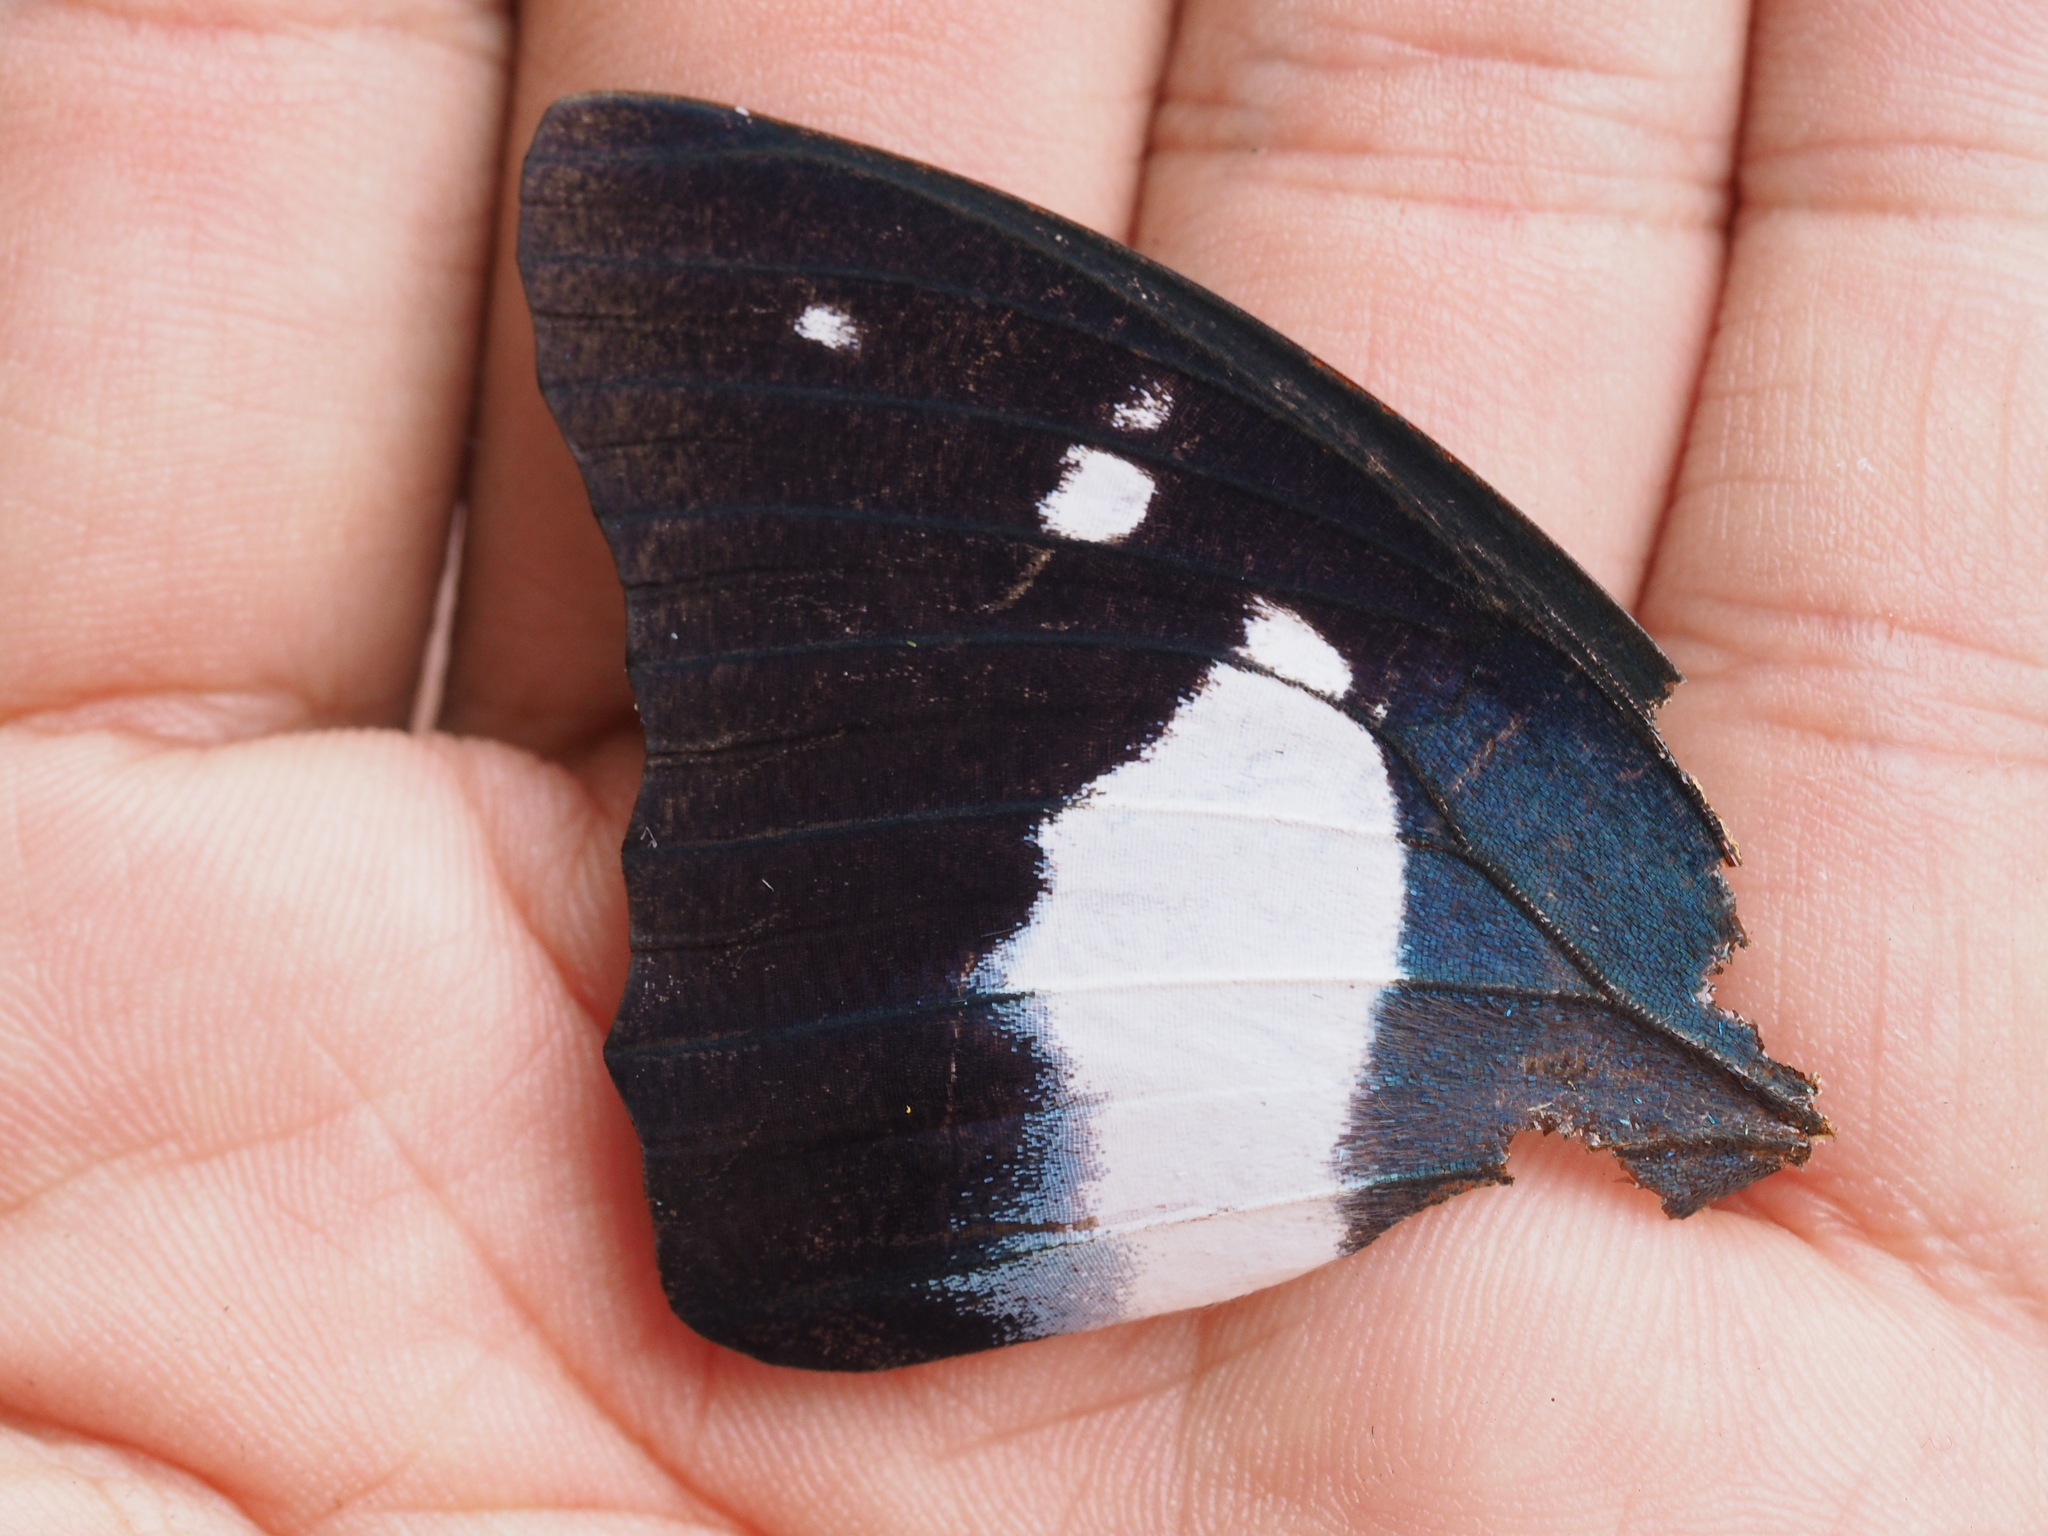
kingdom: Animalia
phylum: Arthropoda
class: Insecta
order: Lepidoptera
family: Nymphalidae
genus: Polyura
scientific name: Polyura schreiber
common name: Blue nawab
